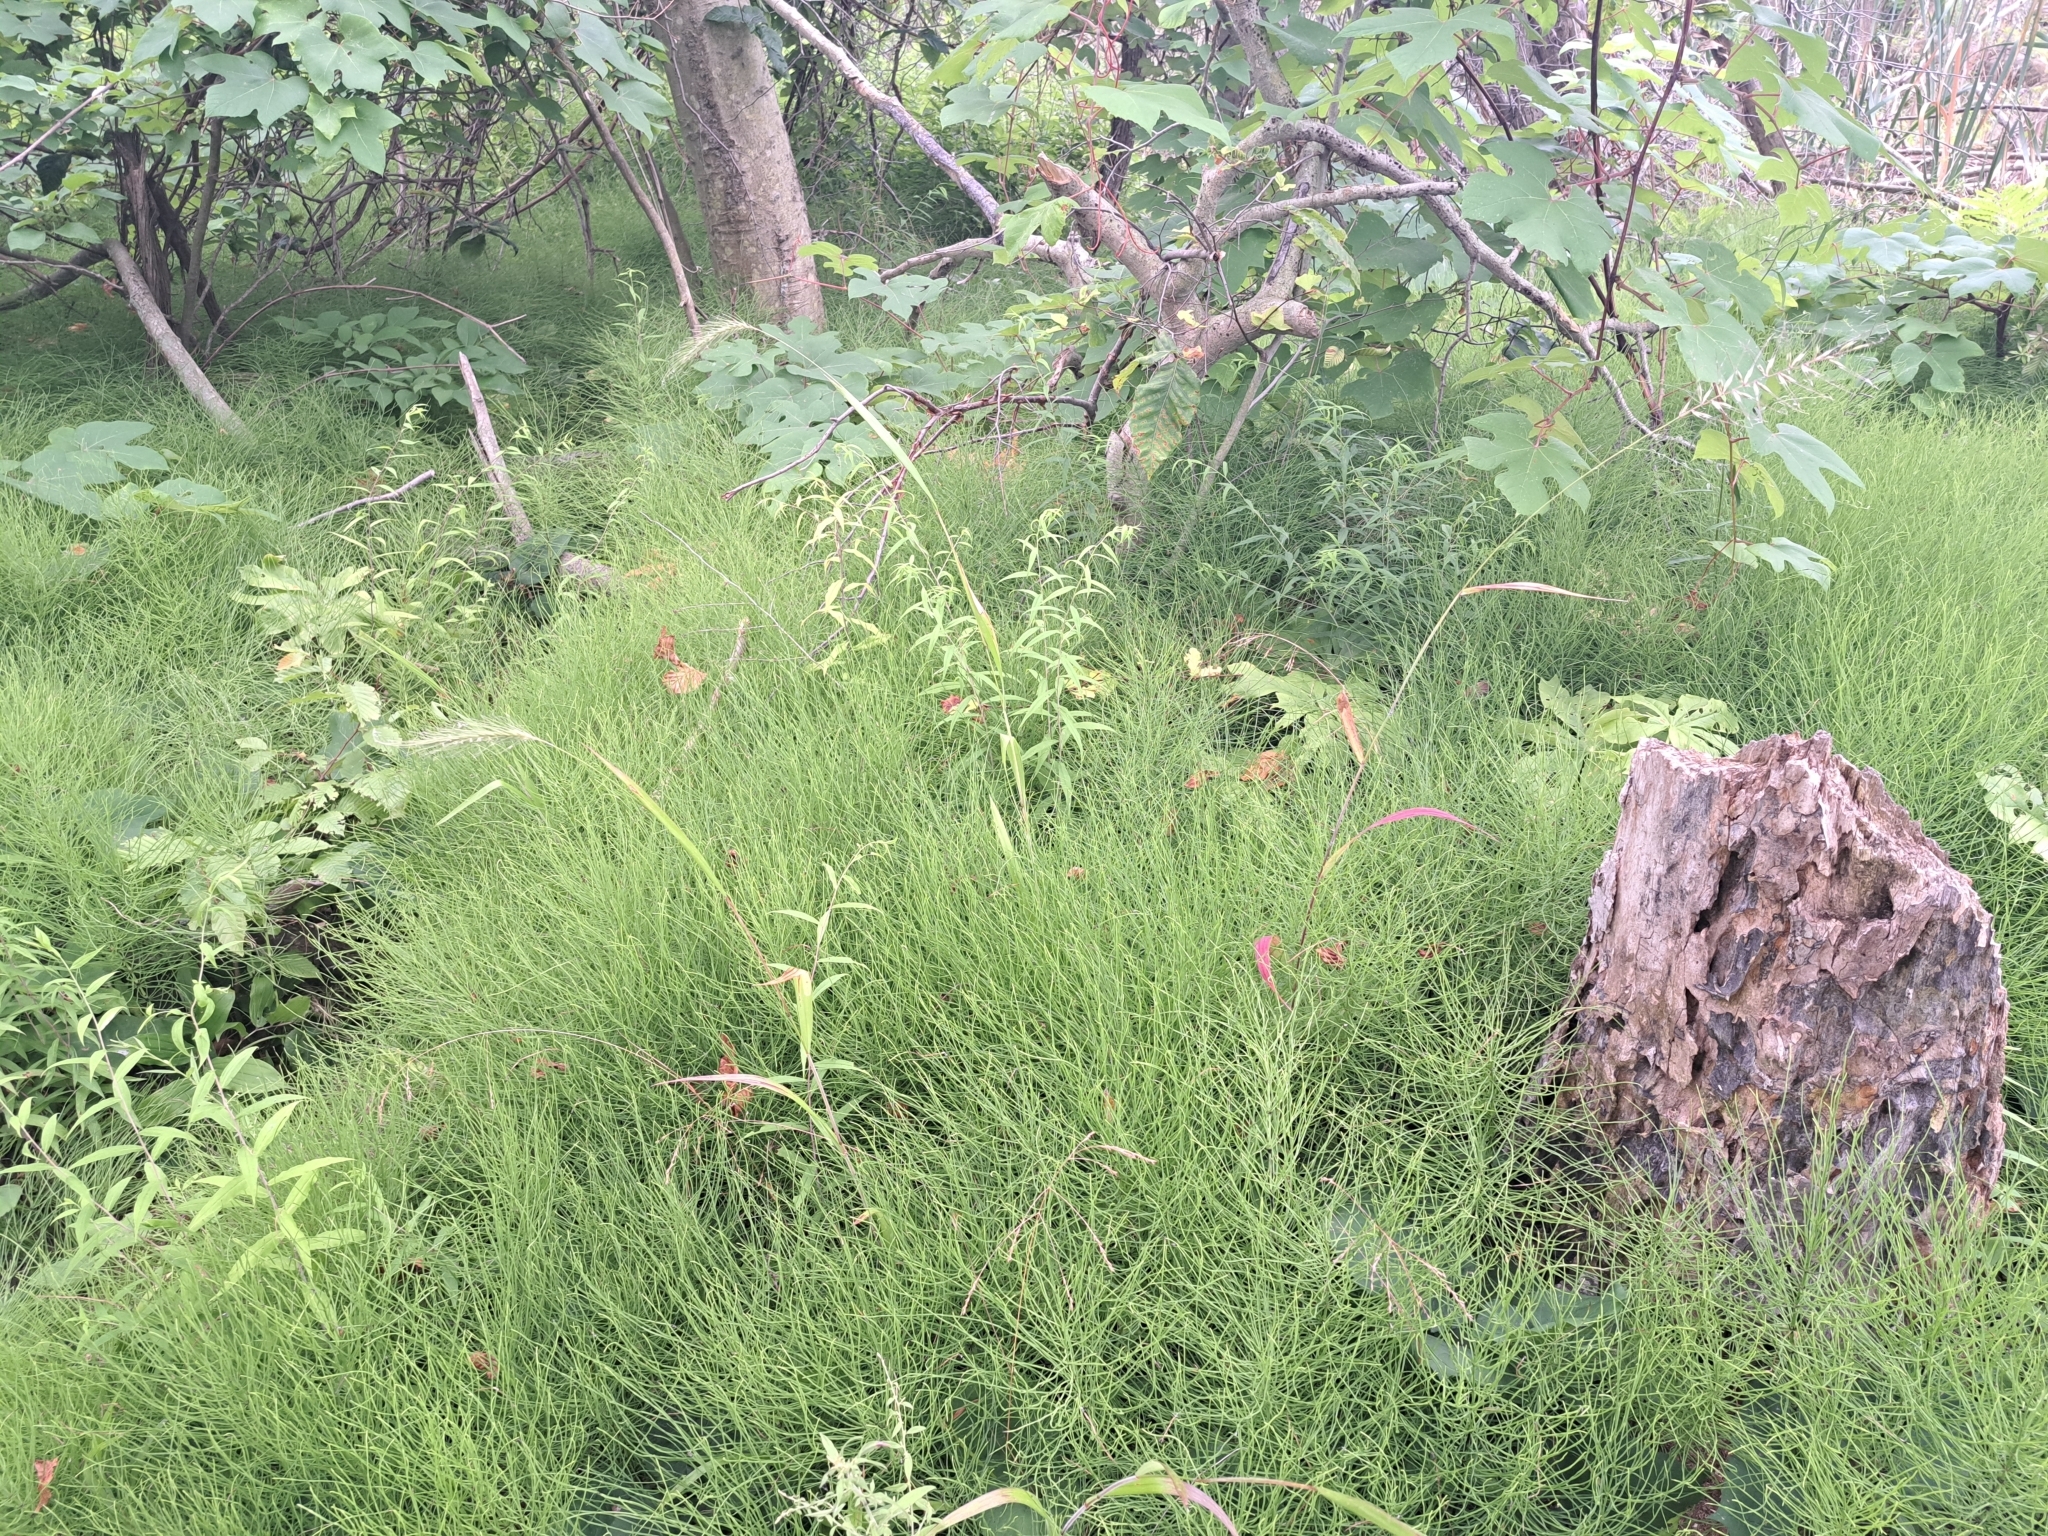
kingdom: Plantae
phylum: Tracheophyta
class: Liliopsida
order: Poales
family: Poaceae
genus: Elymus
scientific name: Elymus villosus
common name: Downy wild rye
